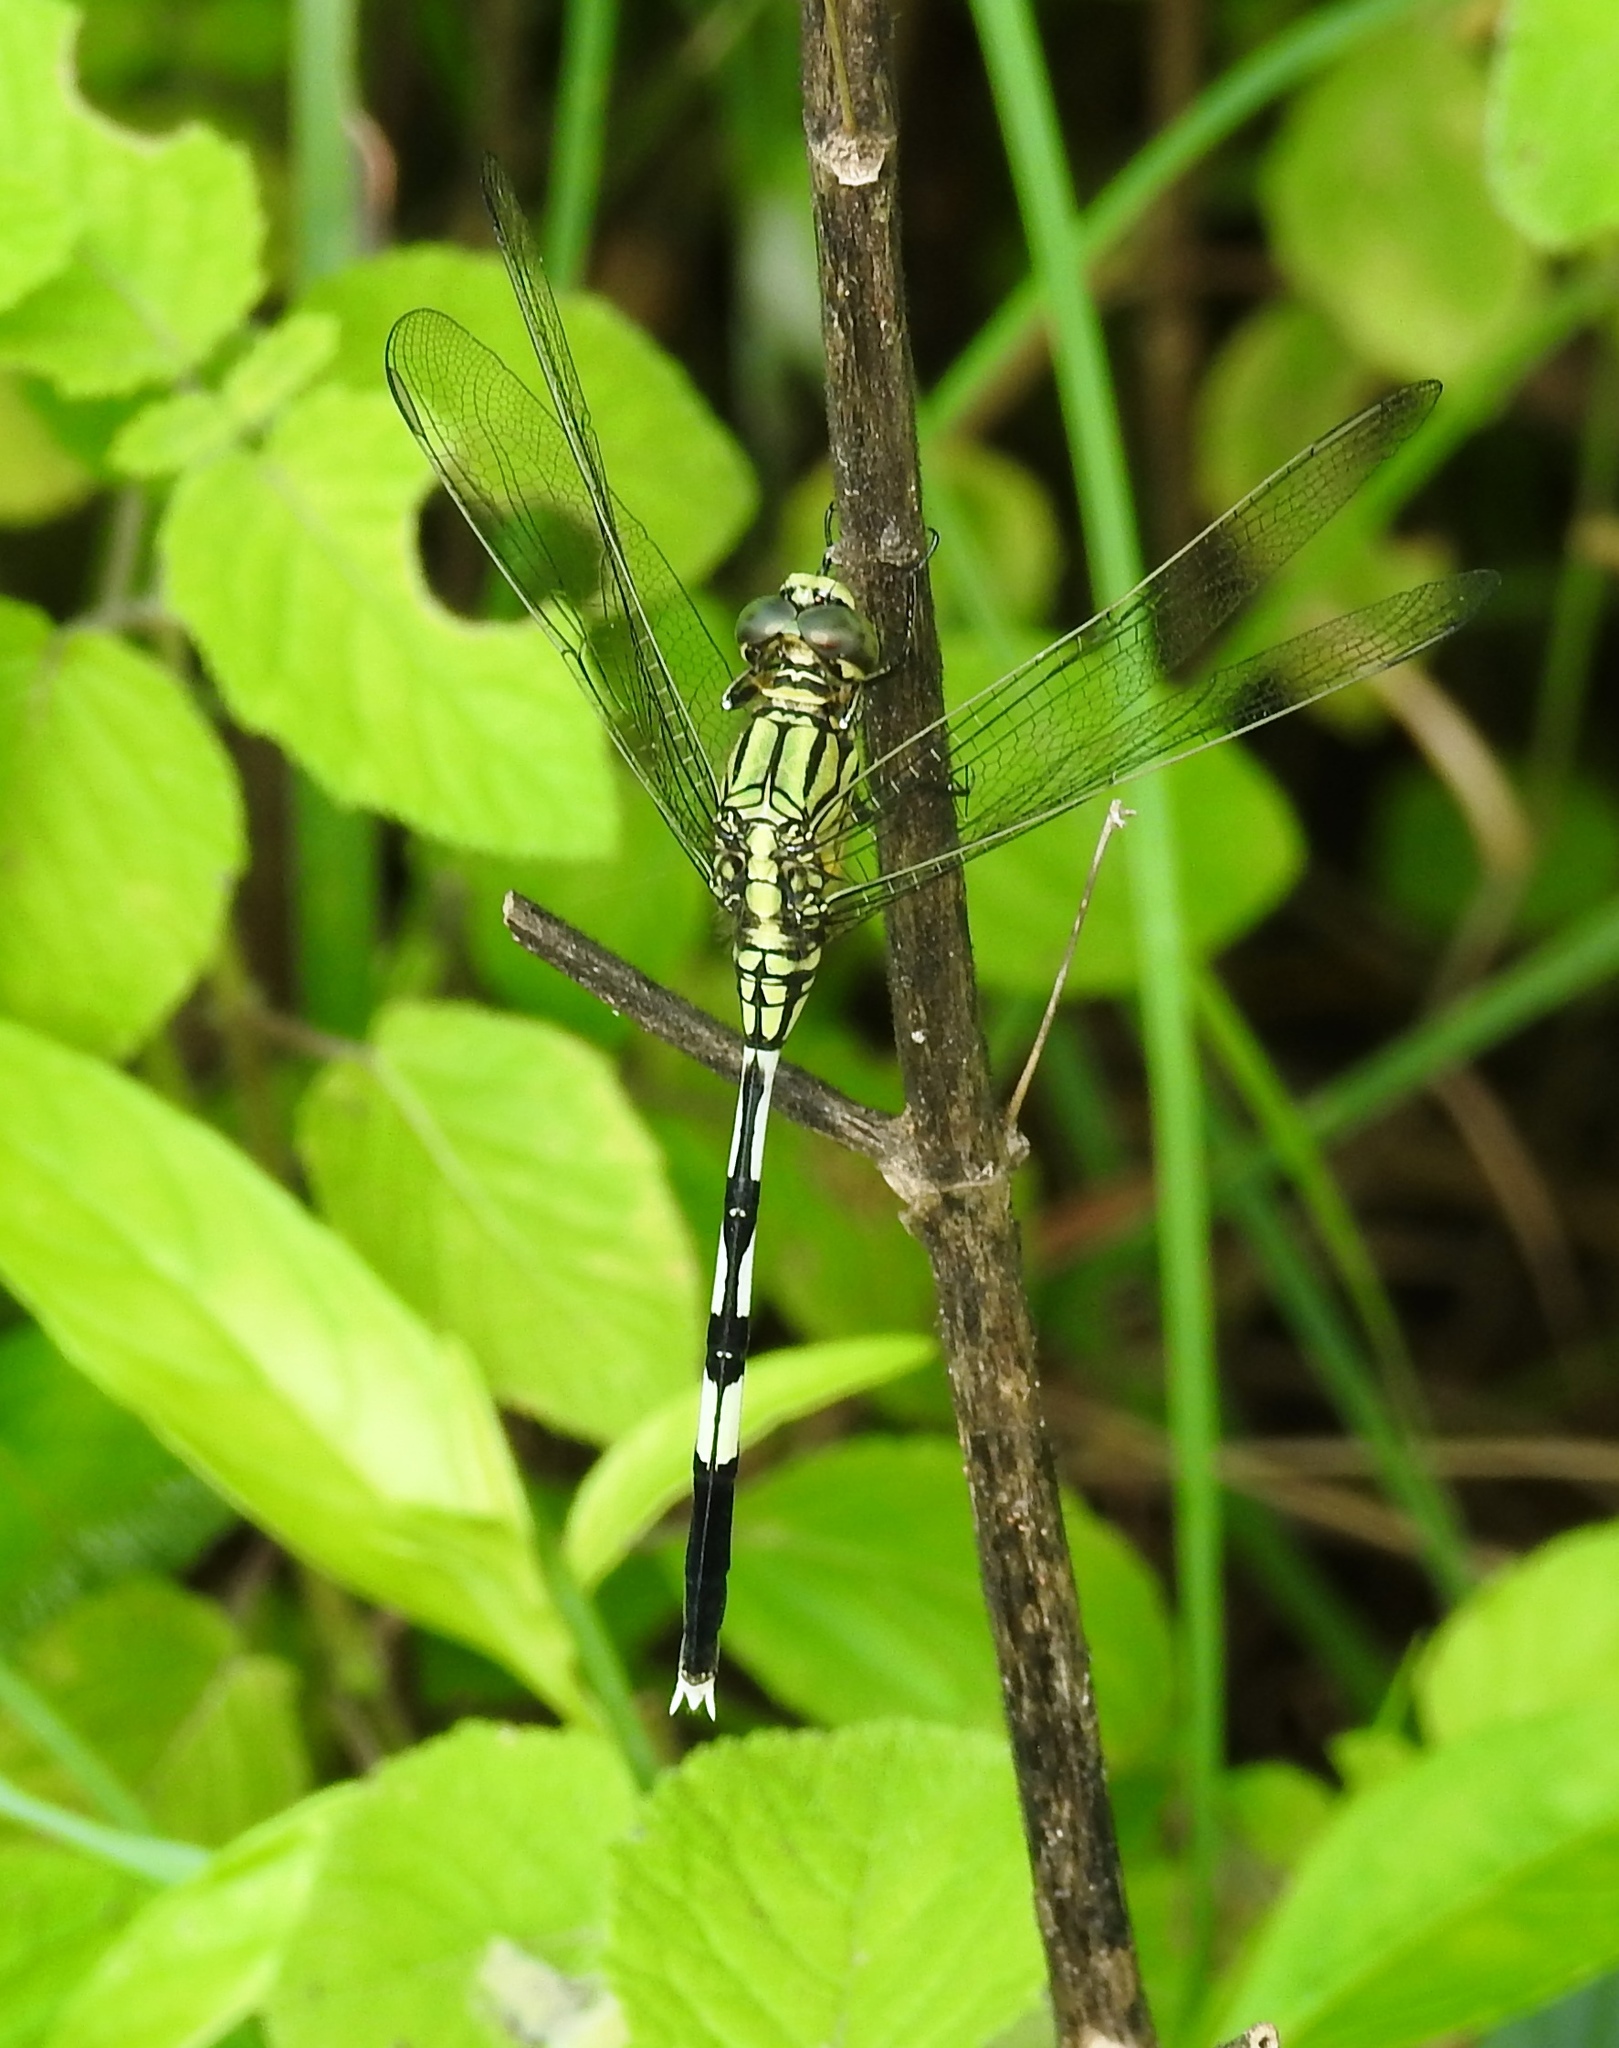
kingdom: Animalia
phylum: Arthropoda
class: Insecta
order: Odonata
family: Libellulidae
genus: Orthetrum
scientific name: Orthetrum sabina
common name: Slender skimmer
